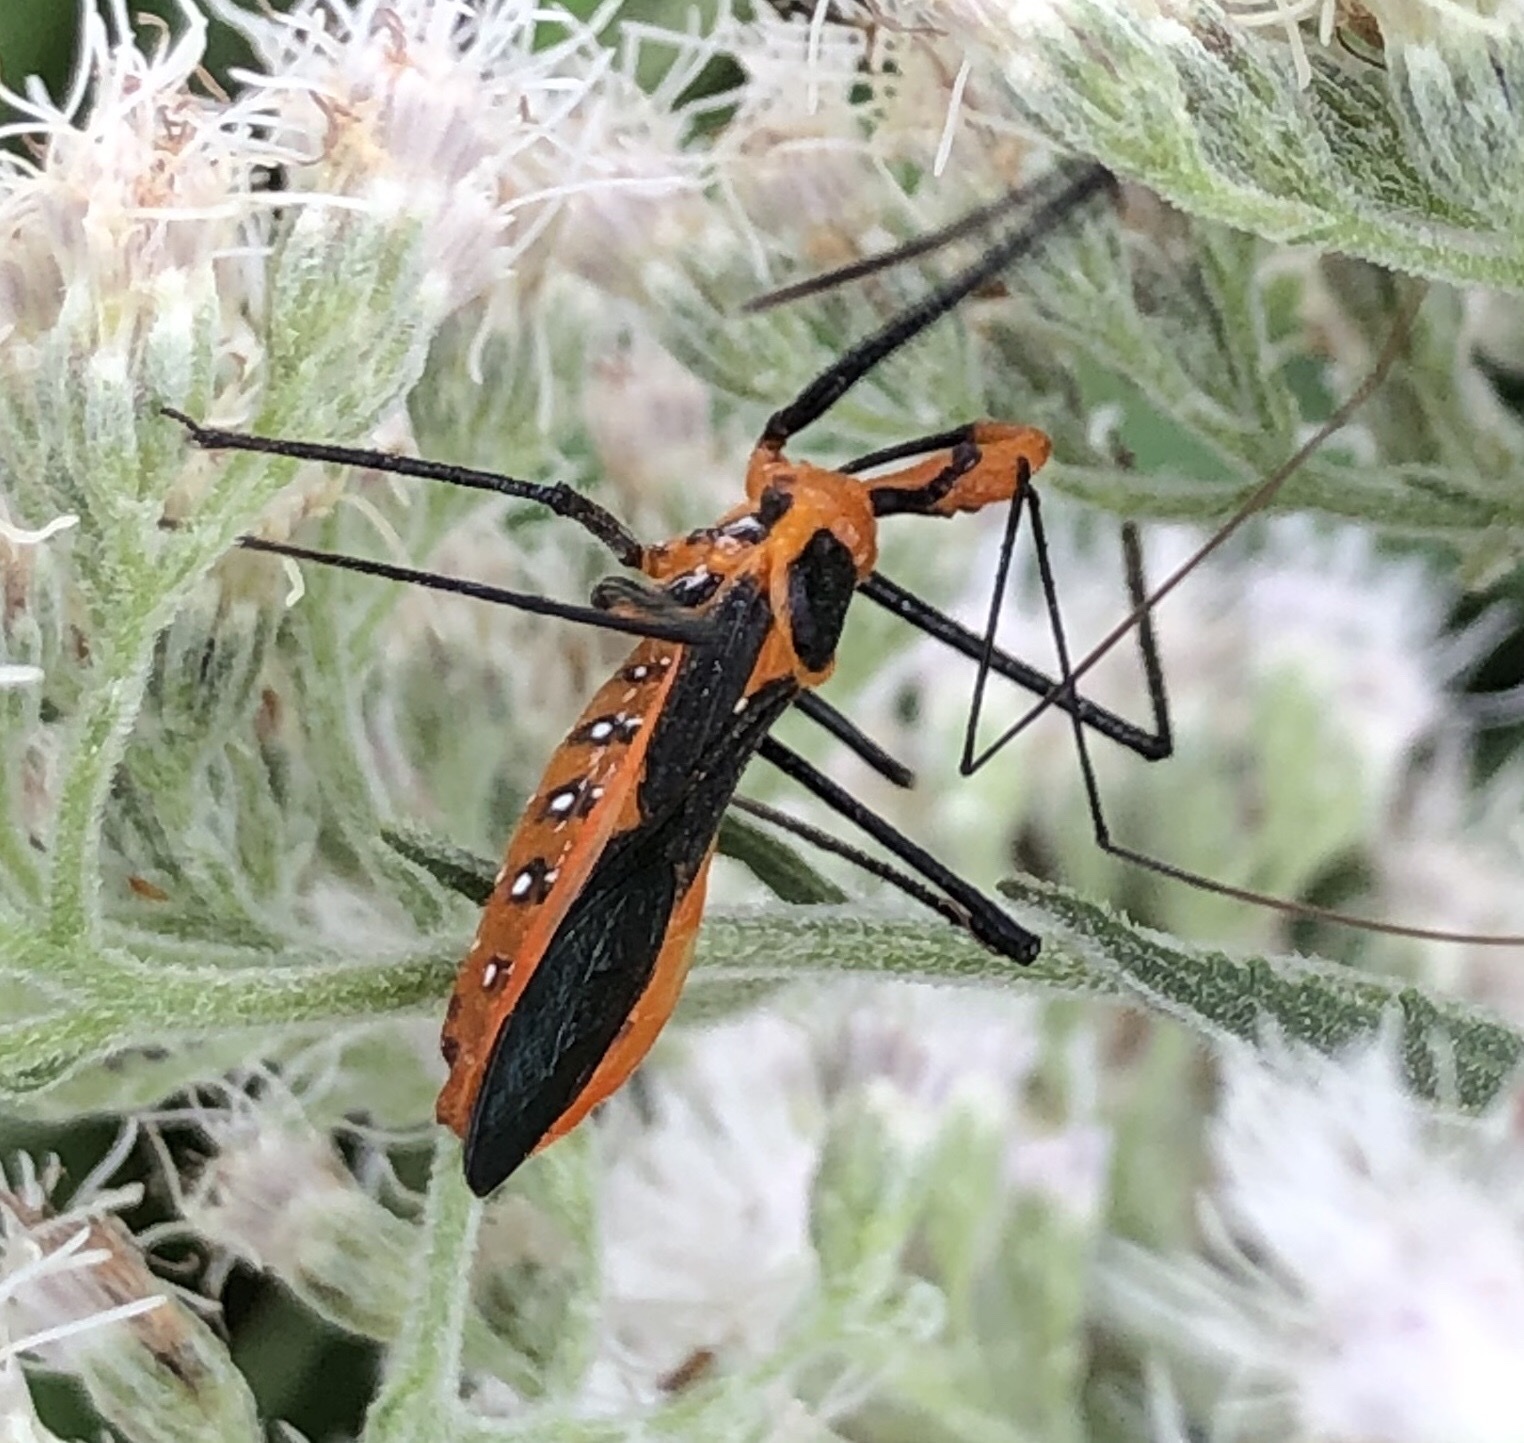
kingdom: Animalia
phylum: Arthropoda
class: Insecta
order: Hemiptera
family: Reduviidae
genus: Zelus
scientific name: Zelus longipes
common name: Milkweed assassin bug
